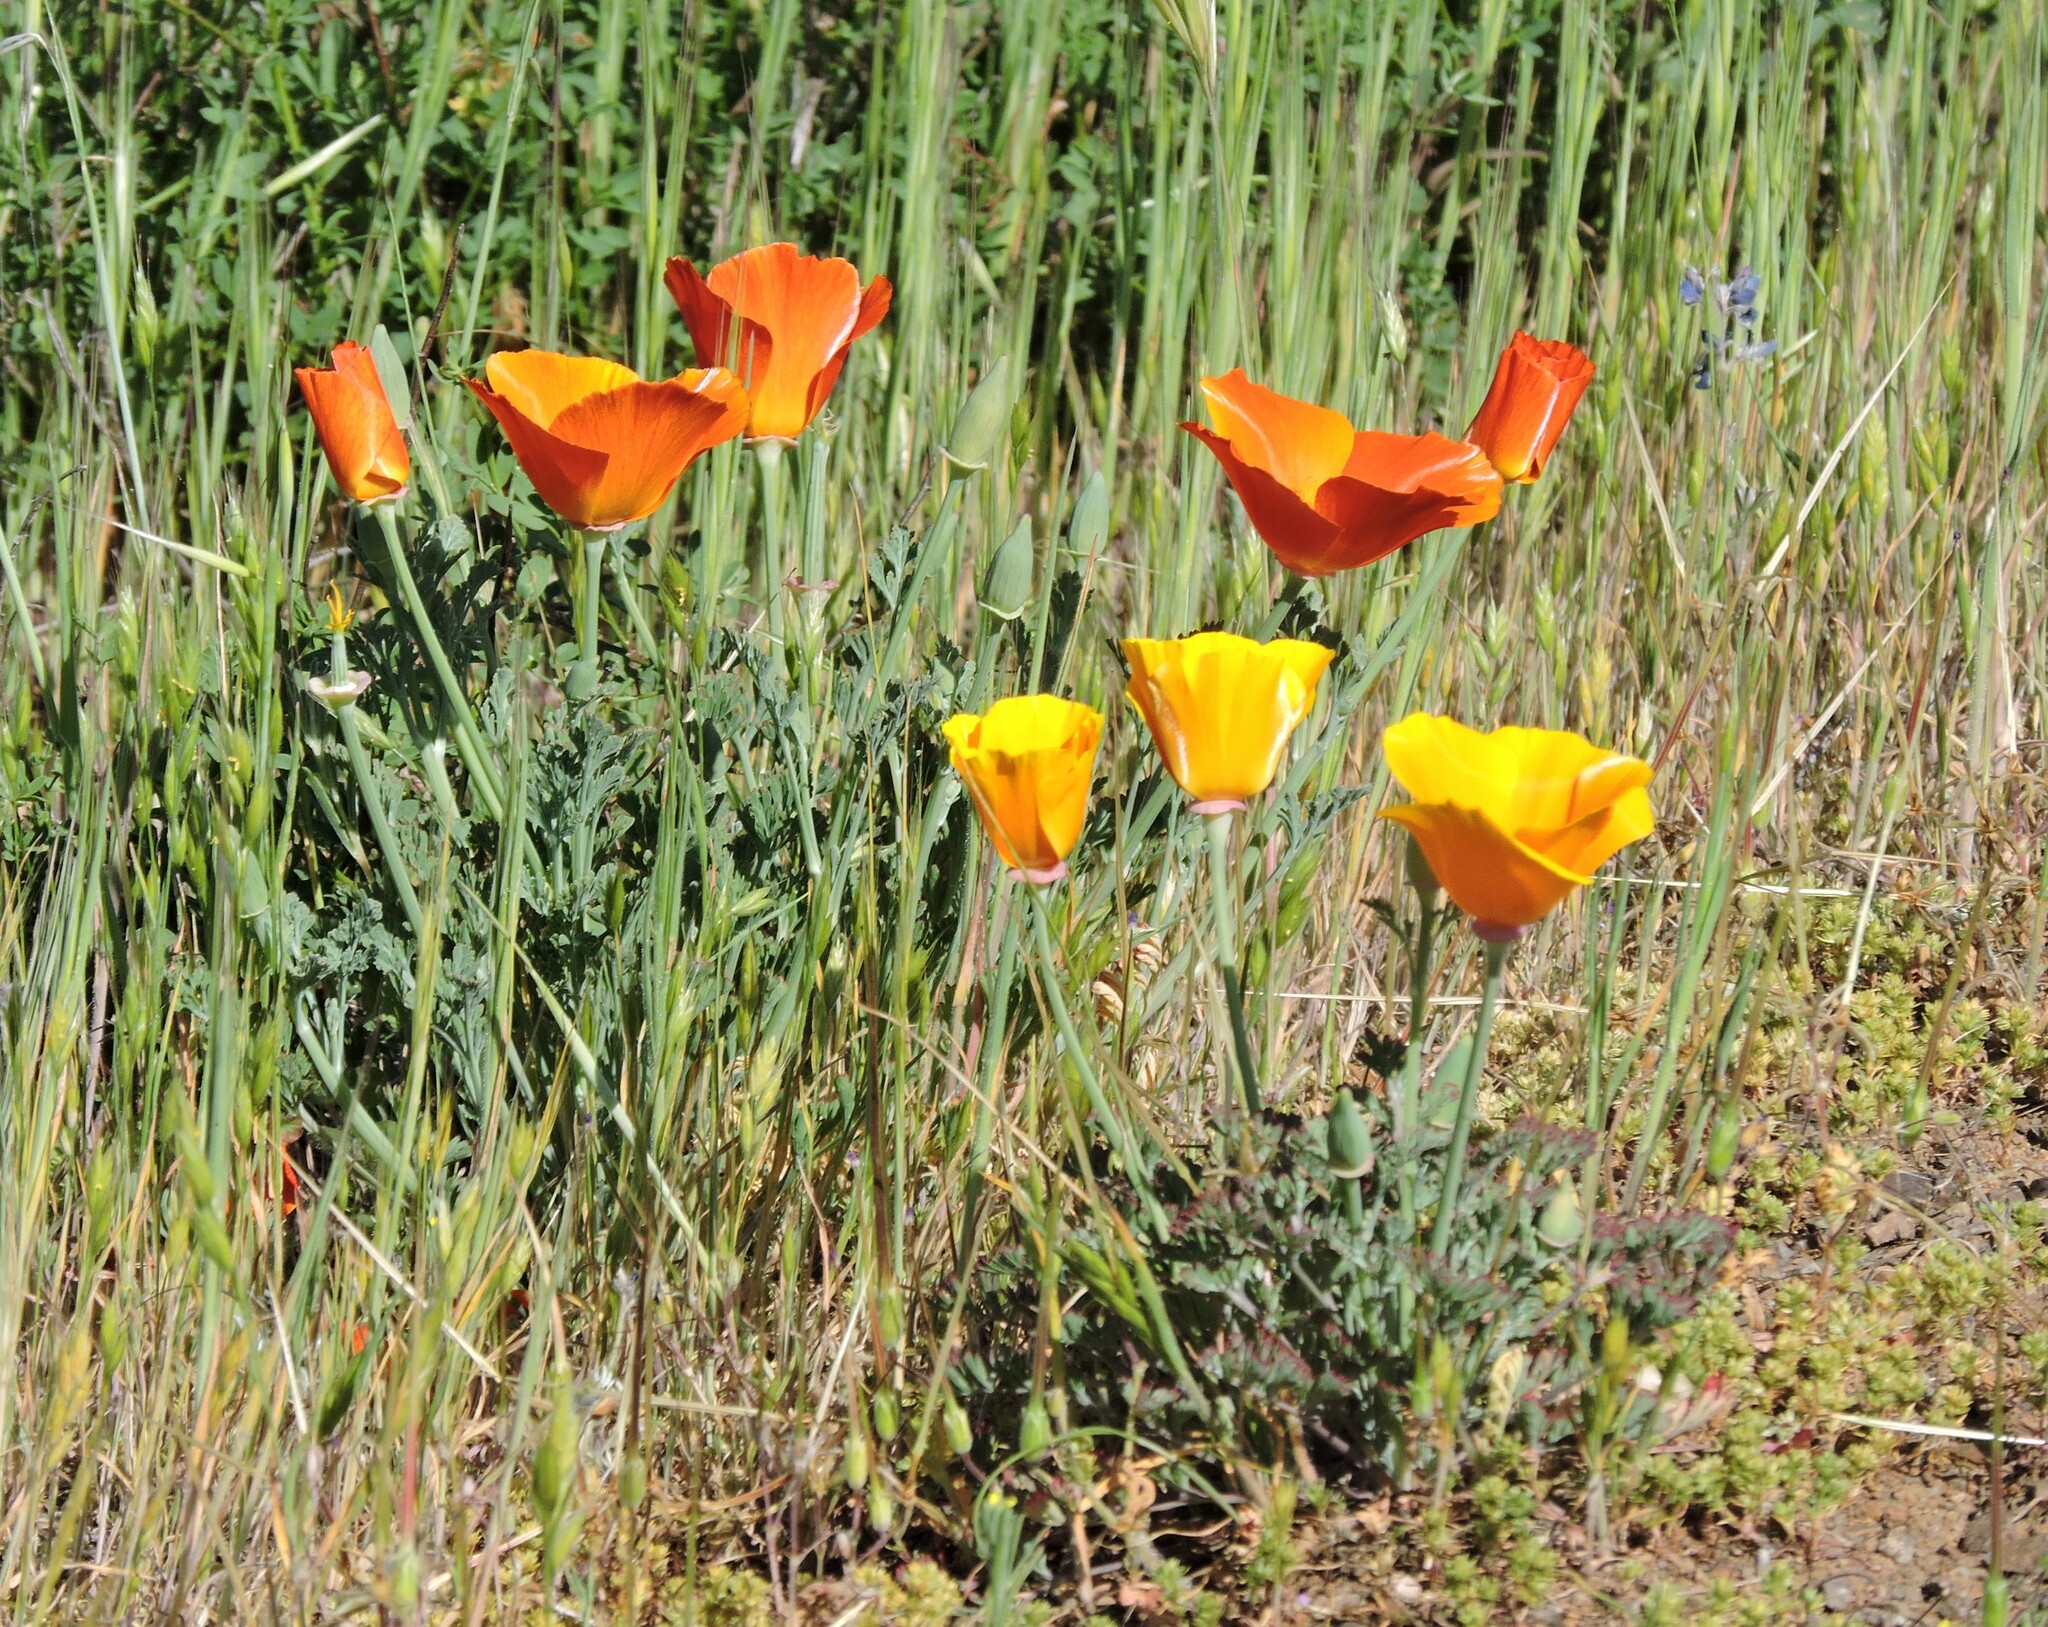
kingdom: Plantae
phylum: Tracheophyta
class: Magnoliopsida
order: Ranunculales
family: Papaveraceae
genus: Eschscholzia
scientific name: Eschscholzia californica
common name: California poppy
